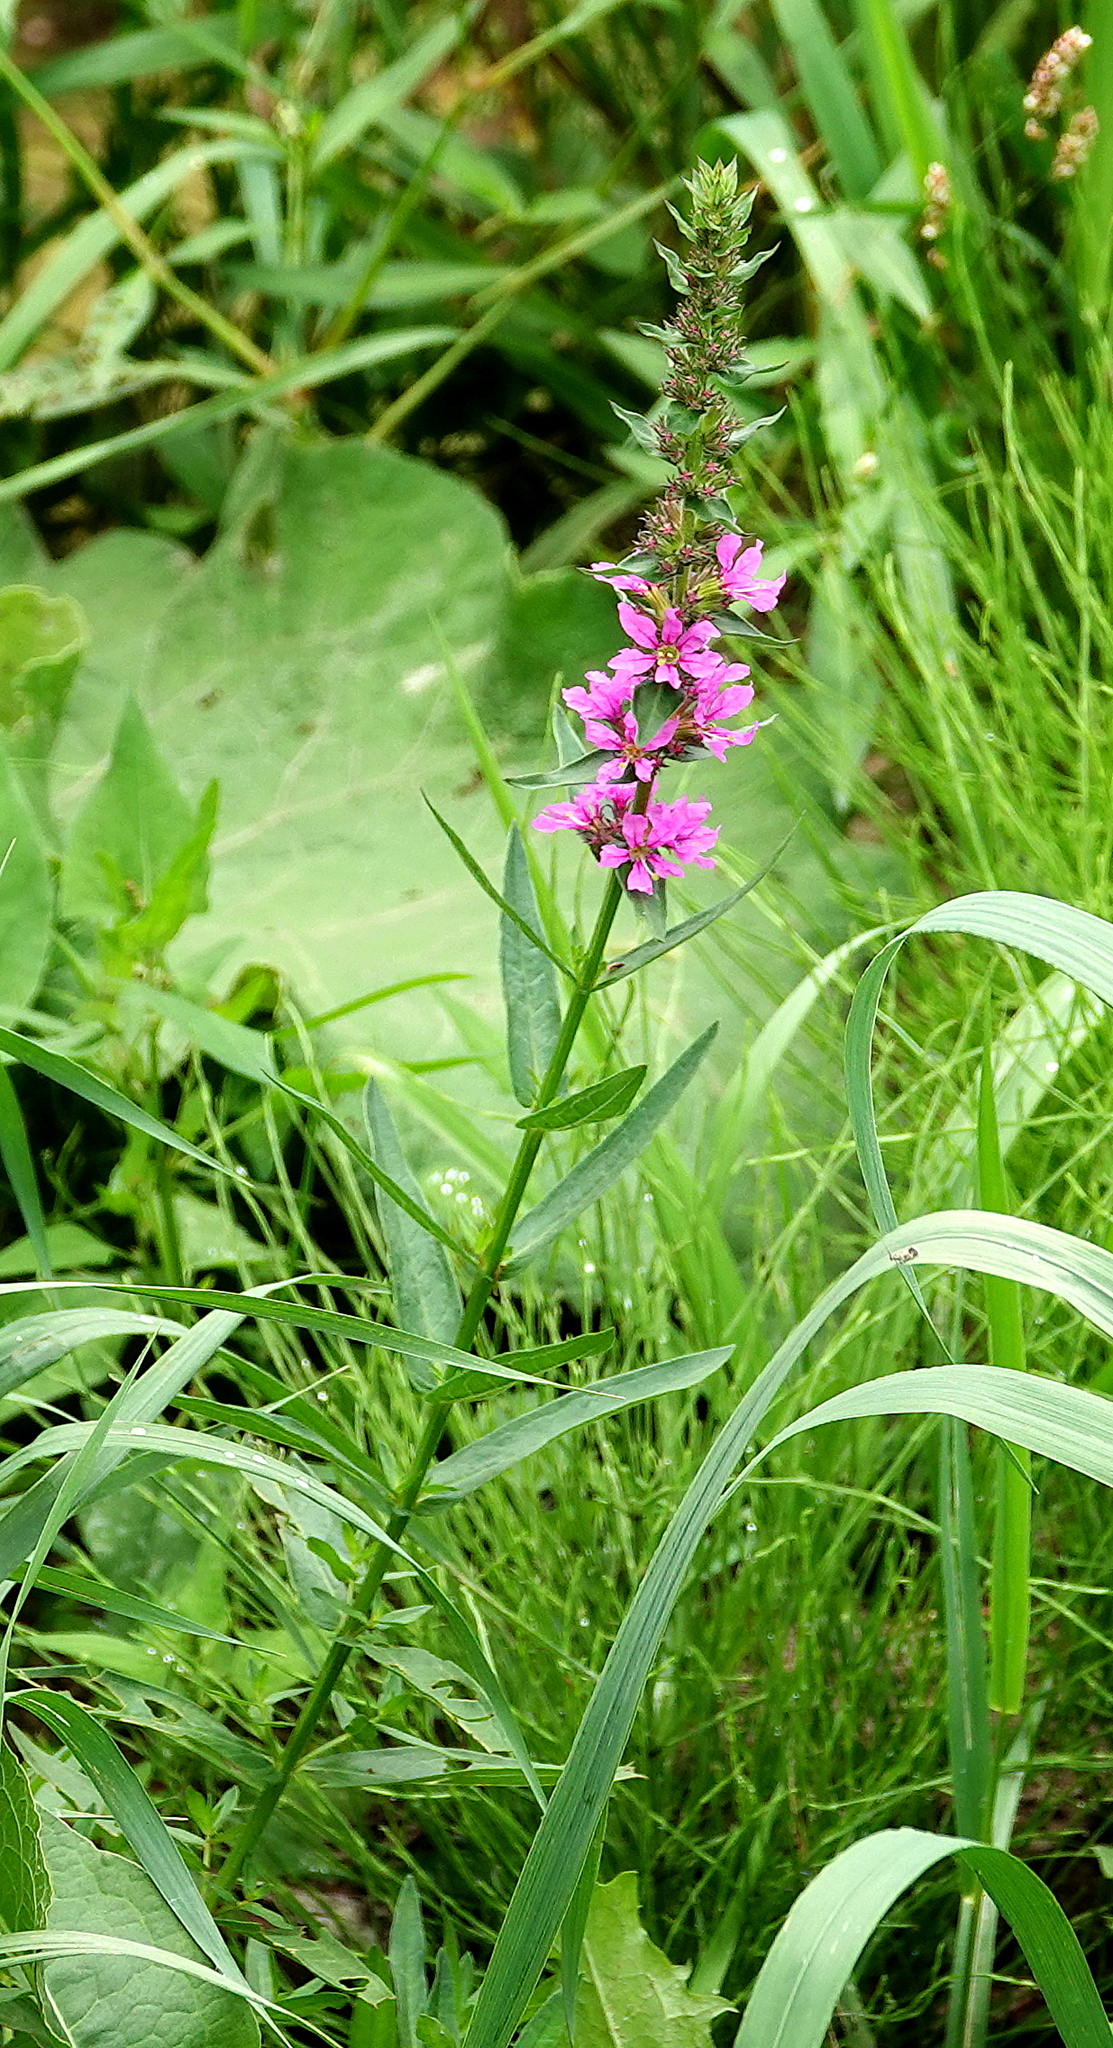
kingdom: Plantae
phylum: Tracheophyta
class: Magnoliopsida
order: Myrtales
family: Lythraceae
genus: Lythrum
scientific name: Lythrum salicaria
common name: Purple loosestrife
